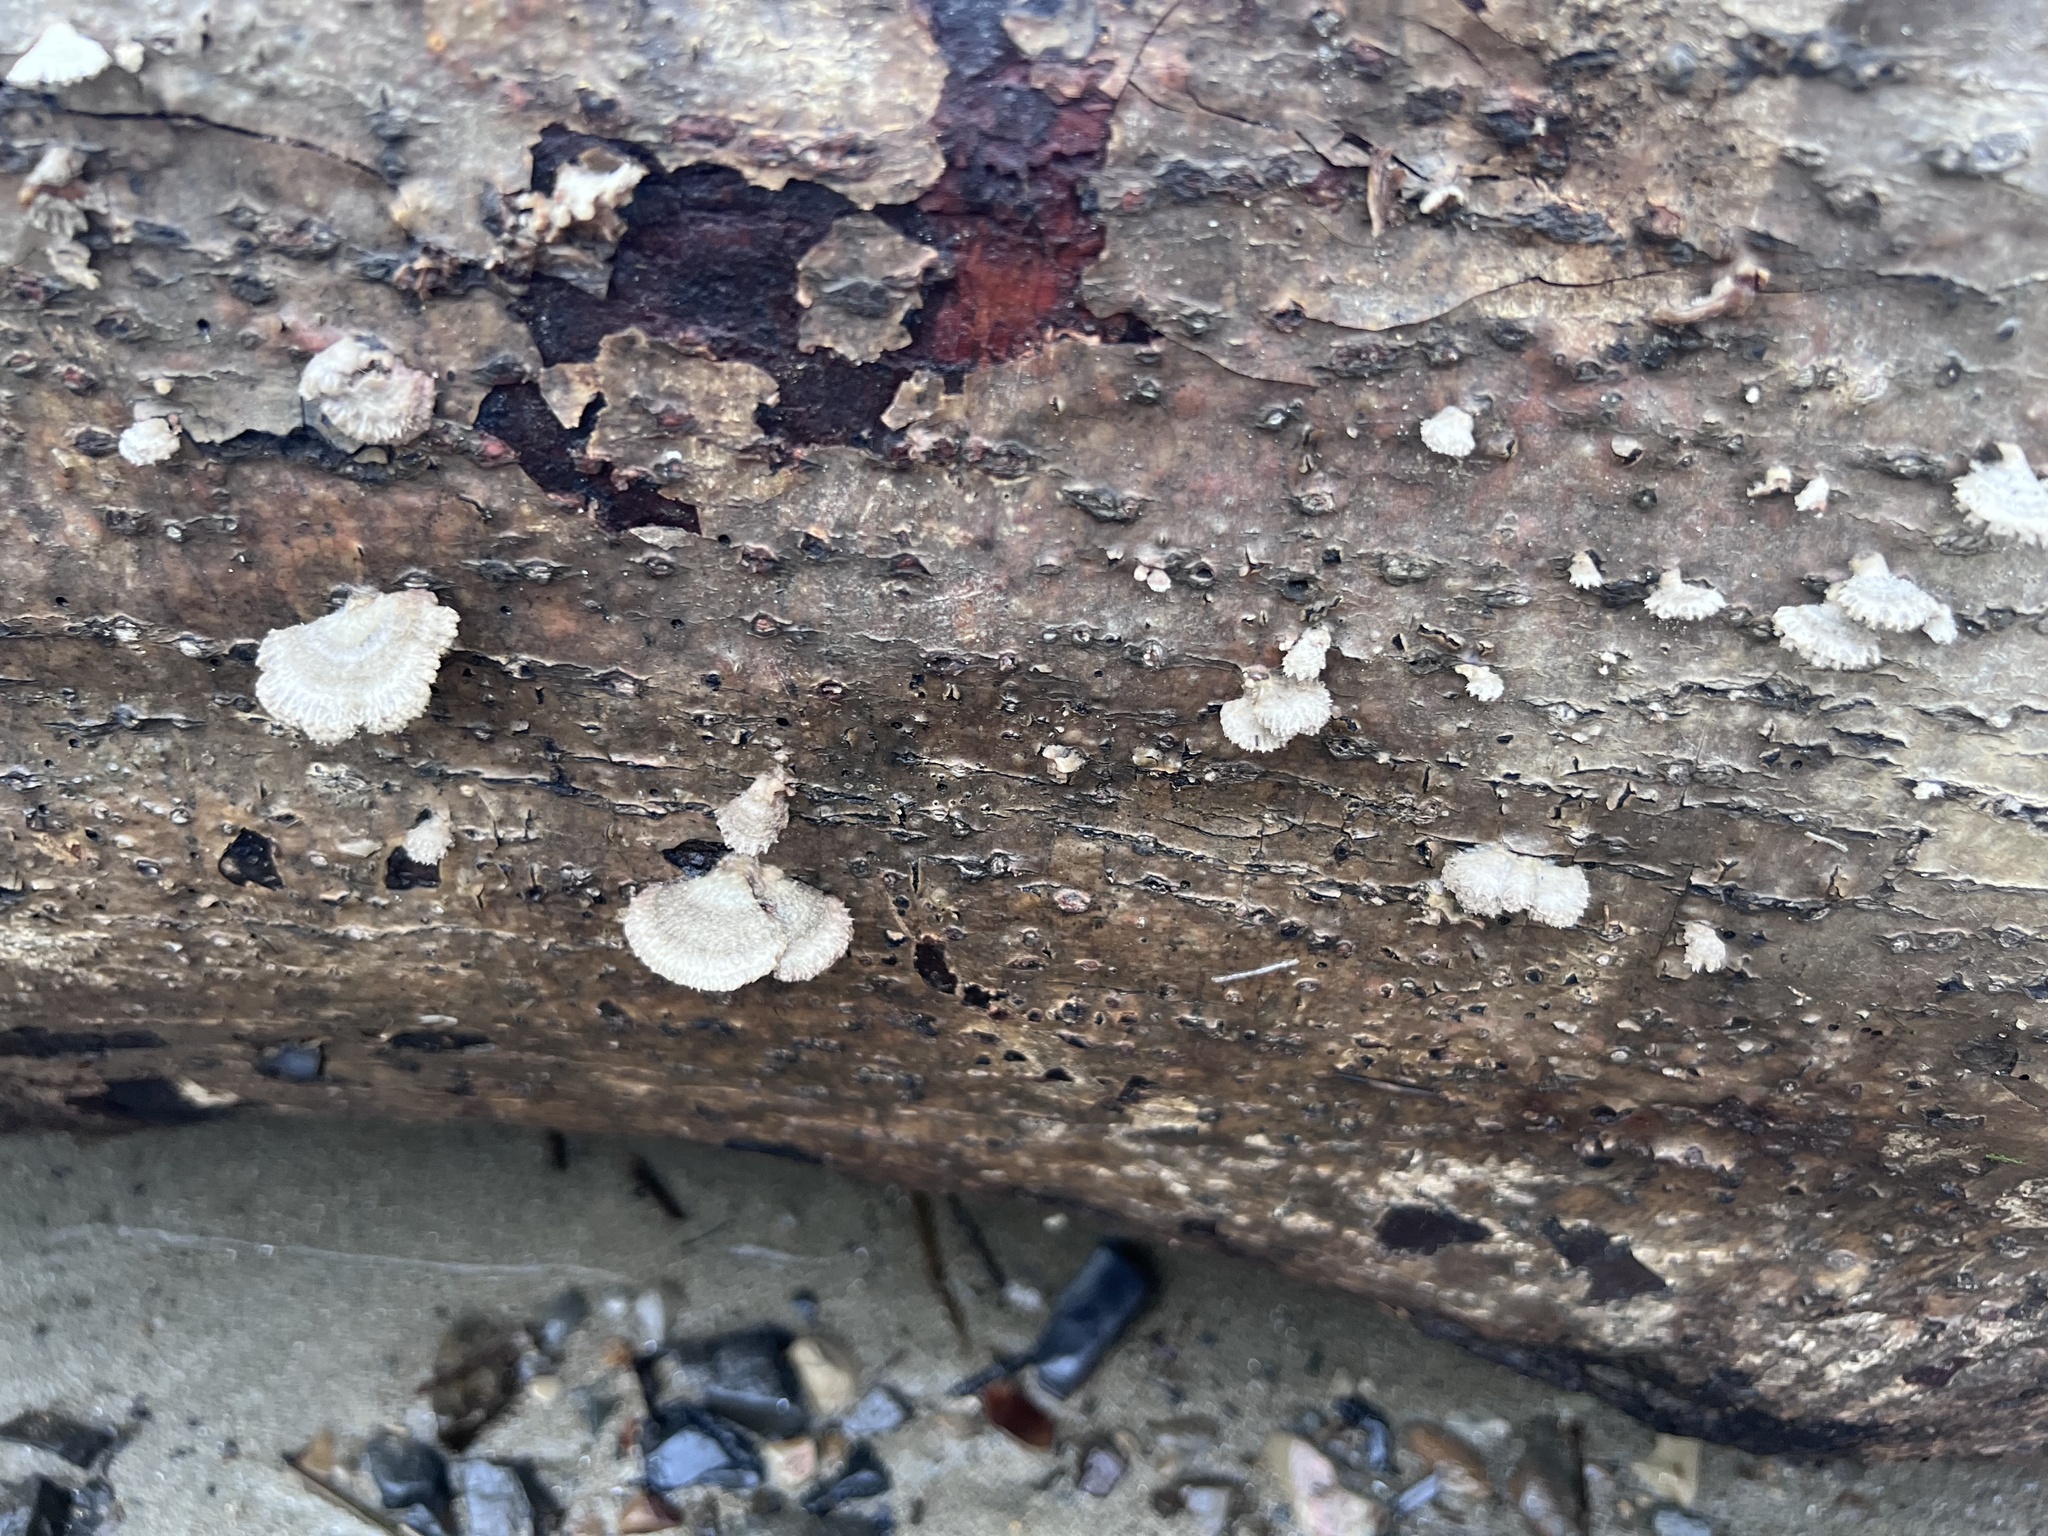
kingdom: Fungi
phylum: Basidiomycota
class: Agaricomycetes
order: Agaricales
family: Schizophyllaceae
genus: Schizophyllum
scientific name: Schizophyllum commune
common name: Common porecrust
